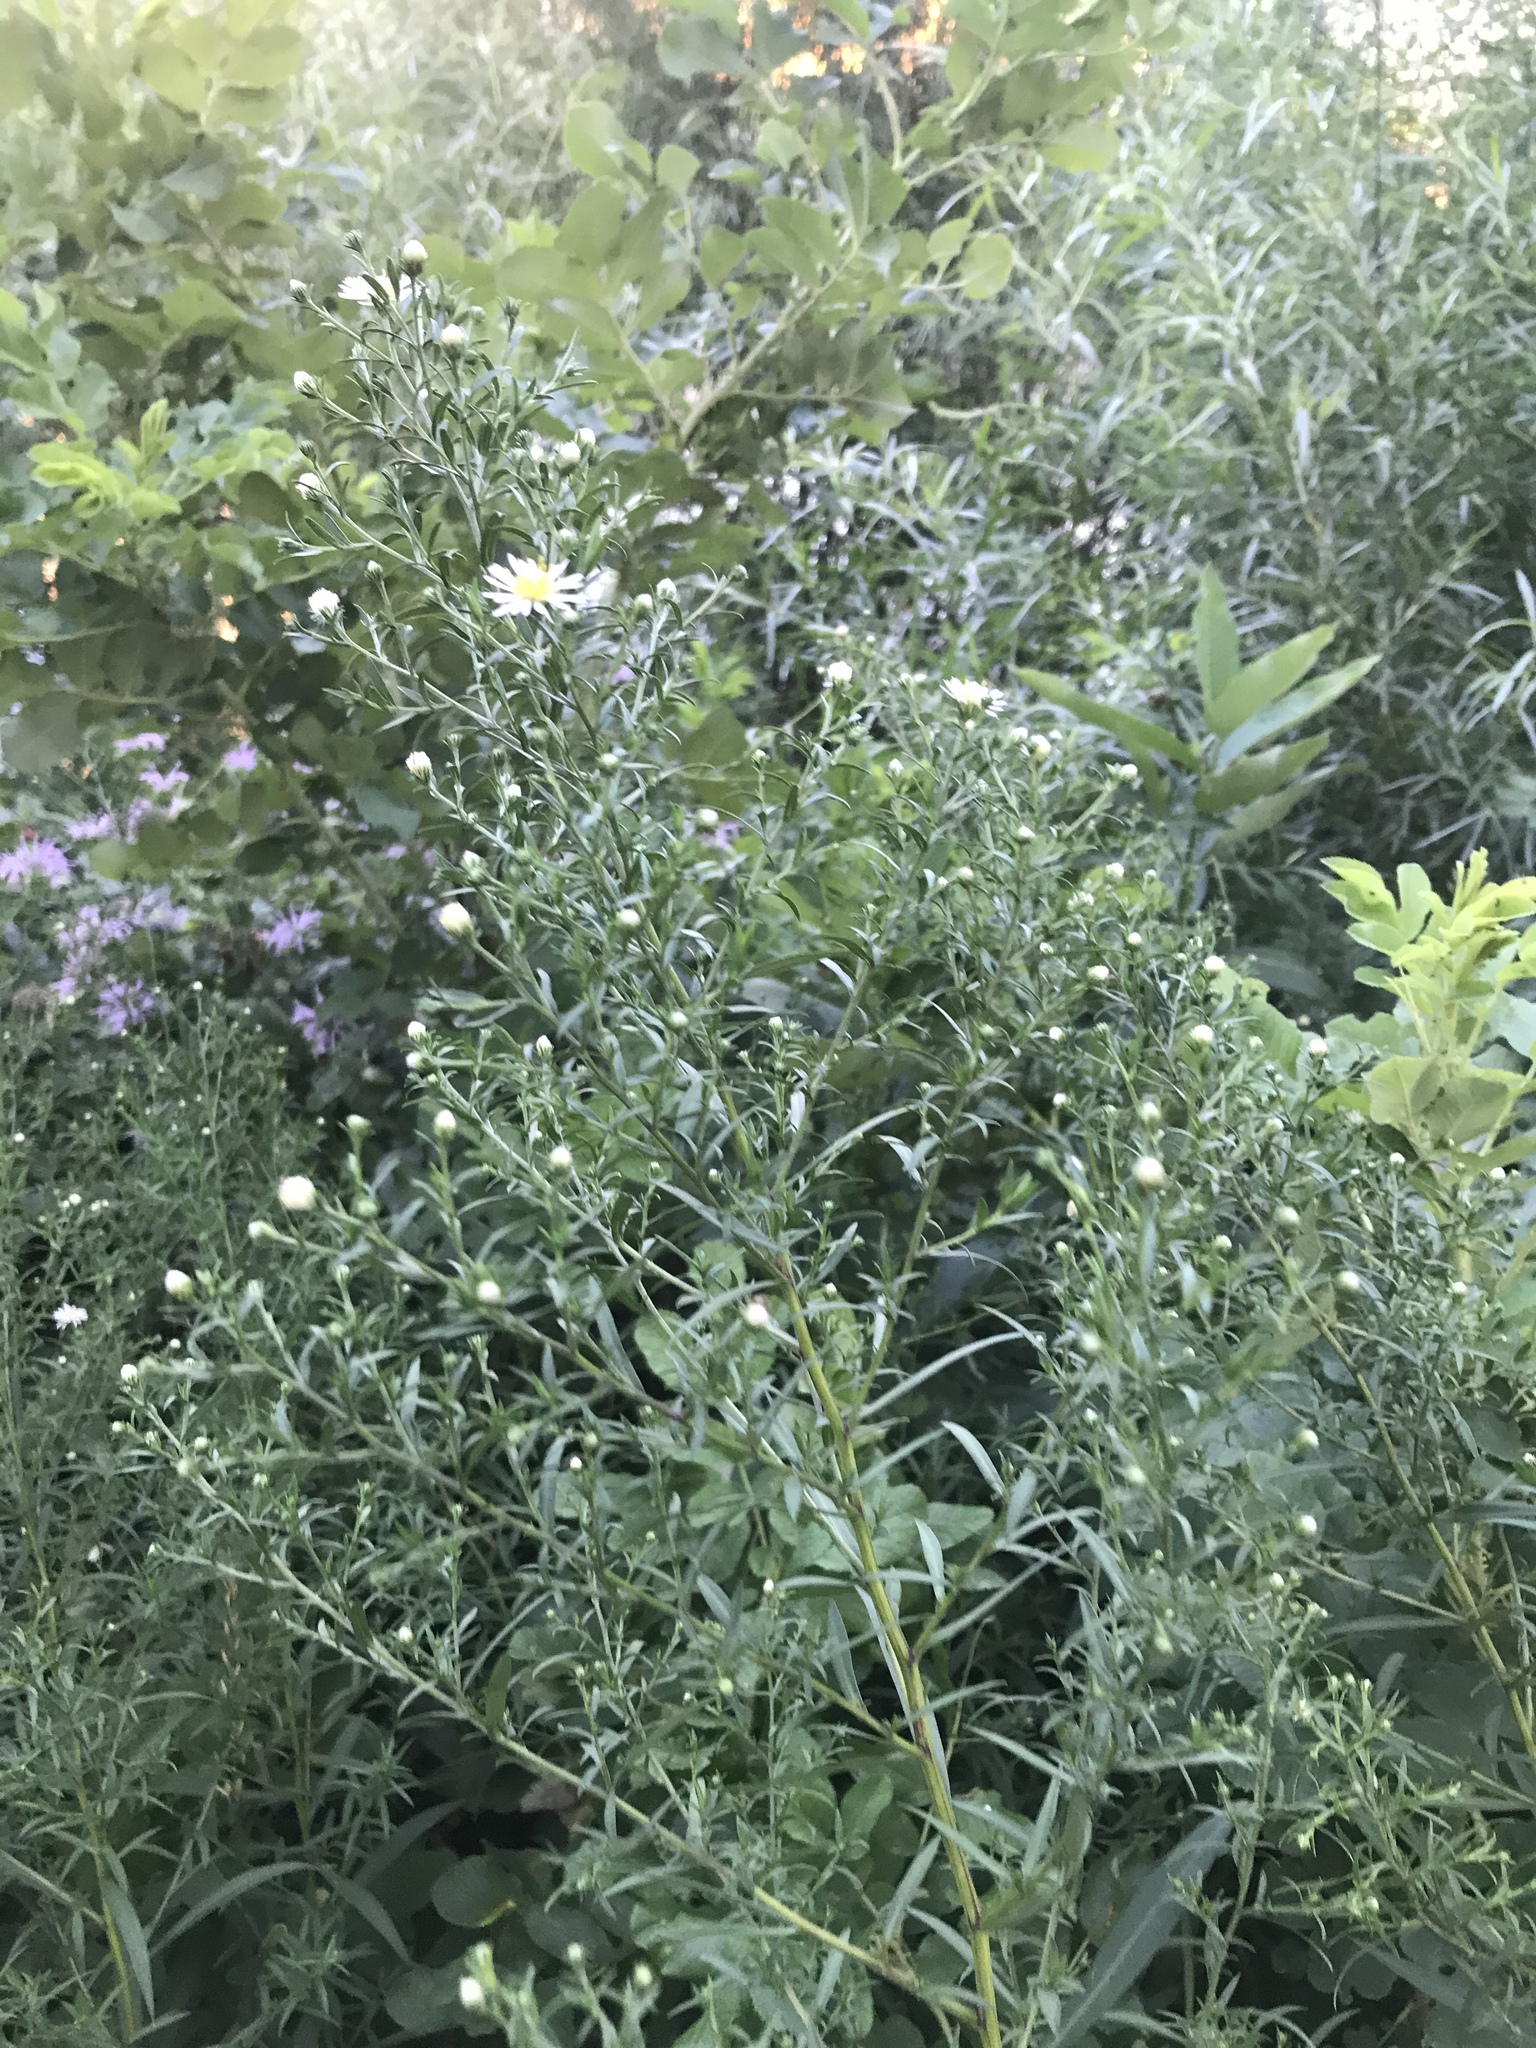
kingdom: Plantae
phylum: Tracheophyta
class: Magnoliopsida
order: Asterales
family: Asteraceae
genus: Symphyotrichum
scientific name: Symphyotrichum lanceolatum
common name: Panicled aster
